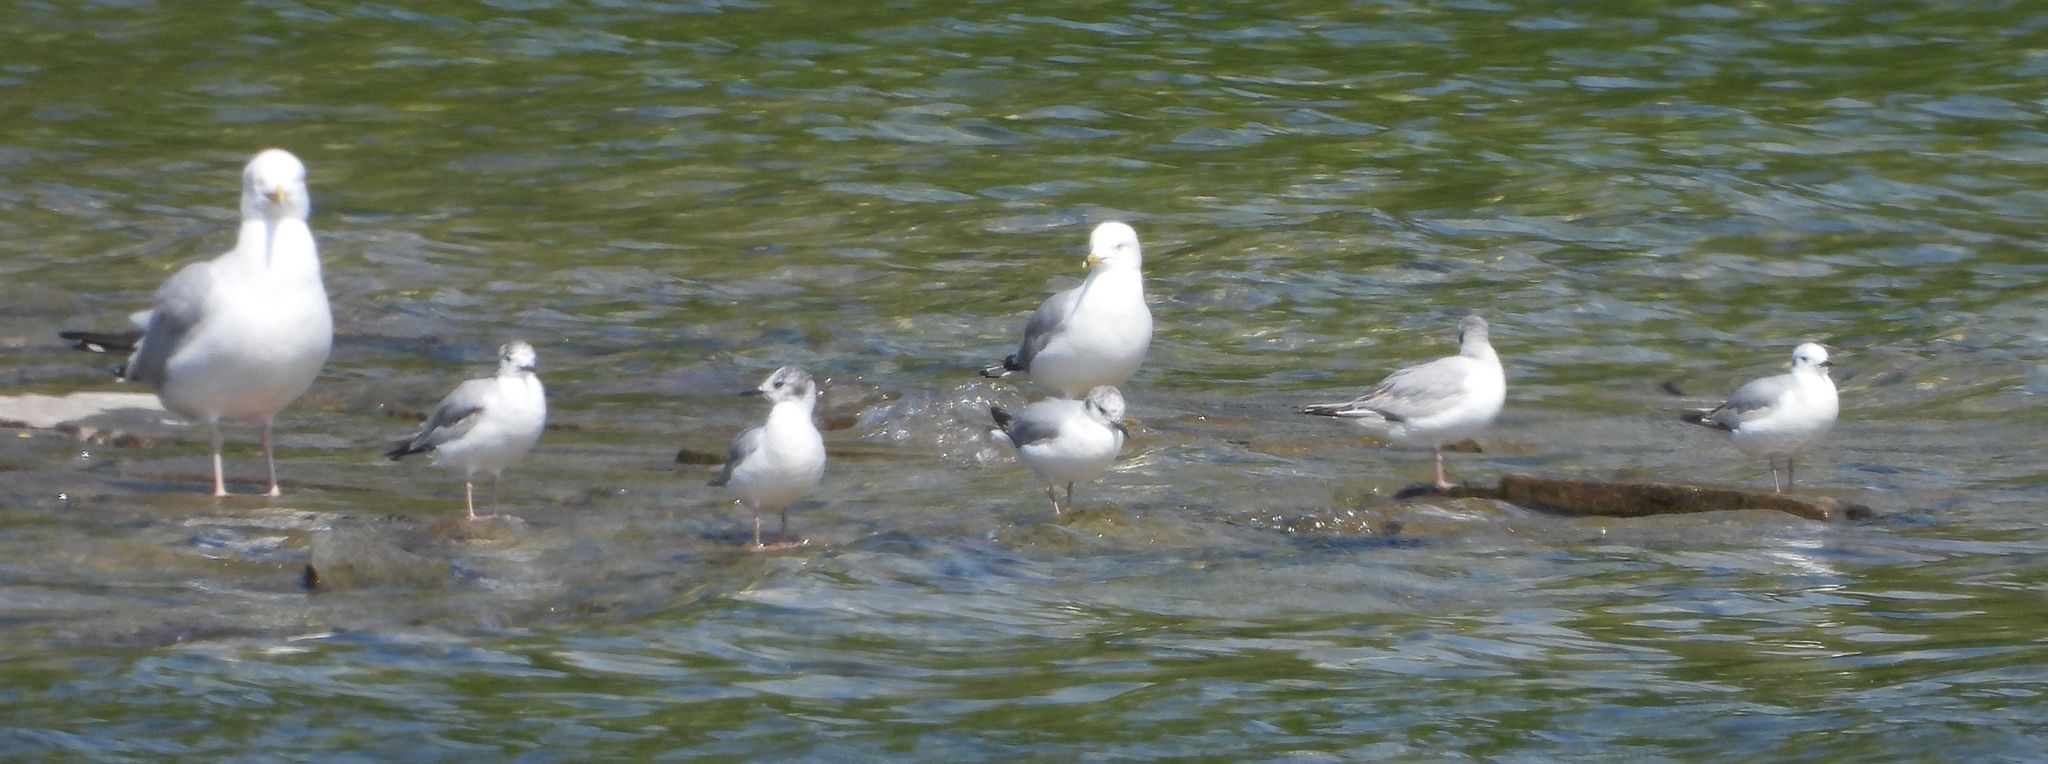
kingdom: Animalia
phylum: Chordata
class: Aves
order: Charadriiformes
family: Laridae
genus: Chroicocephalus
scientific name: Chroicocephalus philadelphia
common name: Bonaparte's gull
